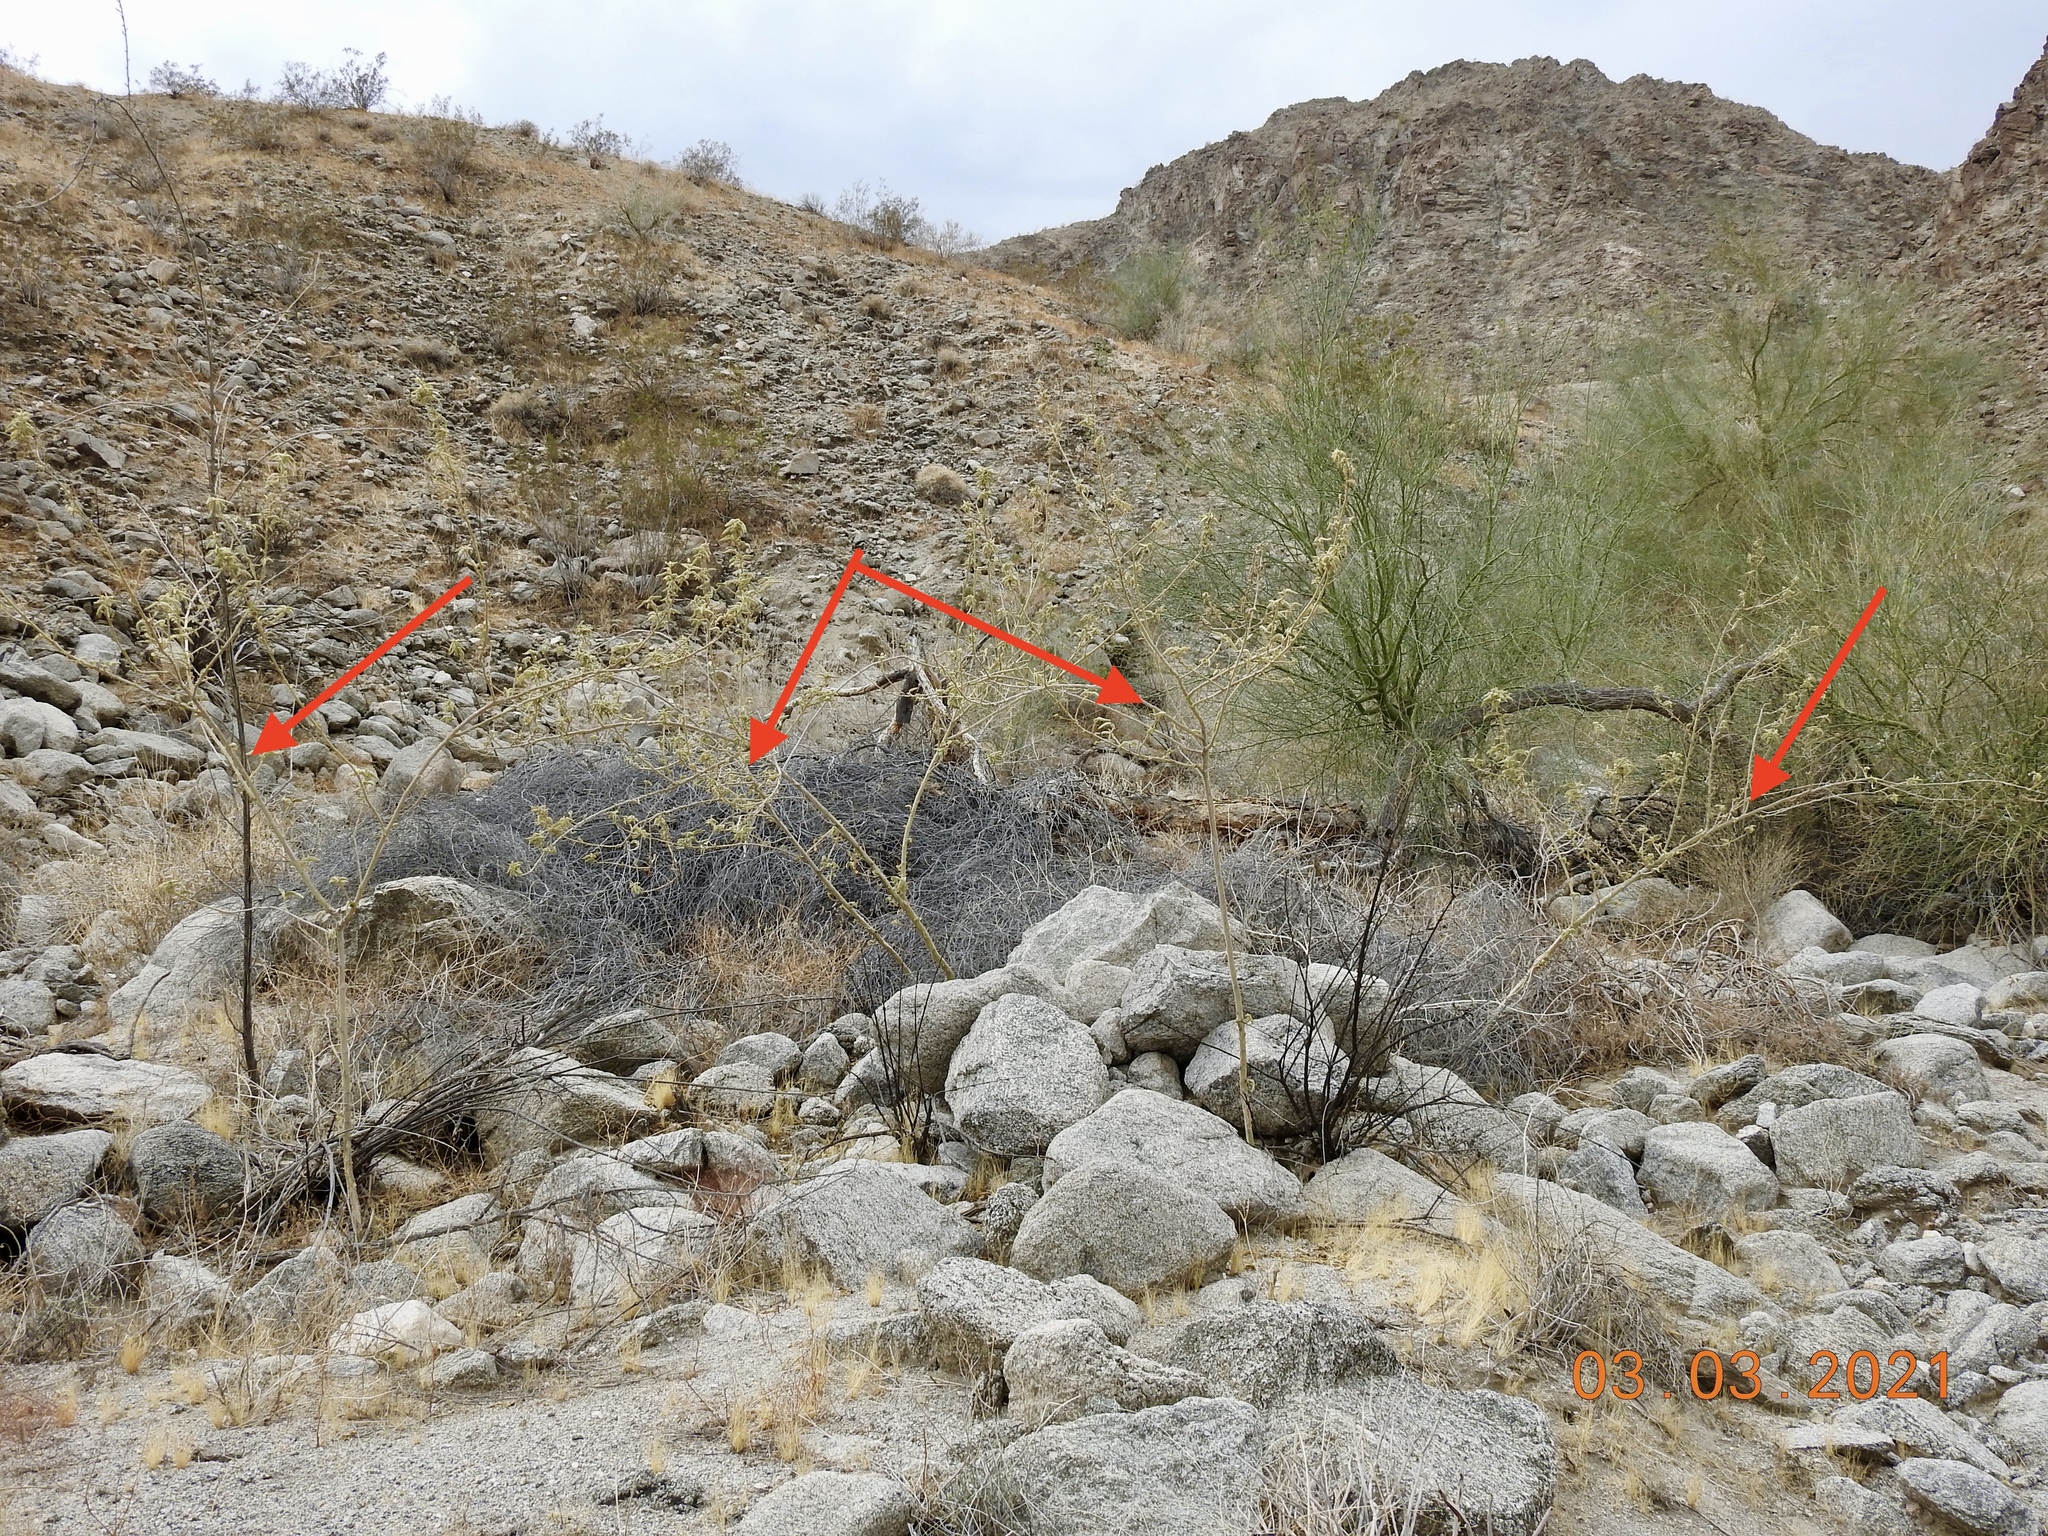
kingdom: Plantae
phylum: Tracheophyta
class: Magnoliopsida
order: Malvales
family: Malvaceae
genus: Horsfordia
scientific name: Horsfordia newberryi
